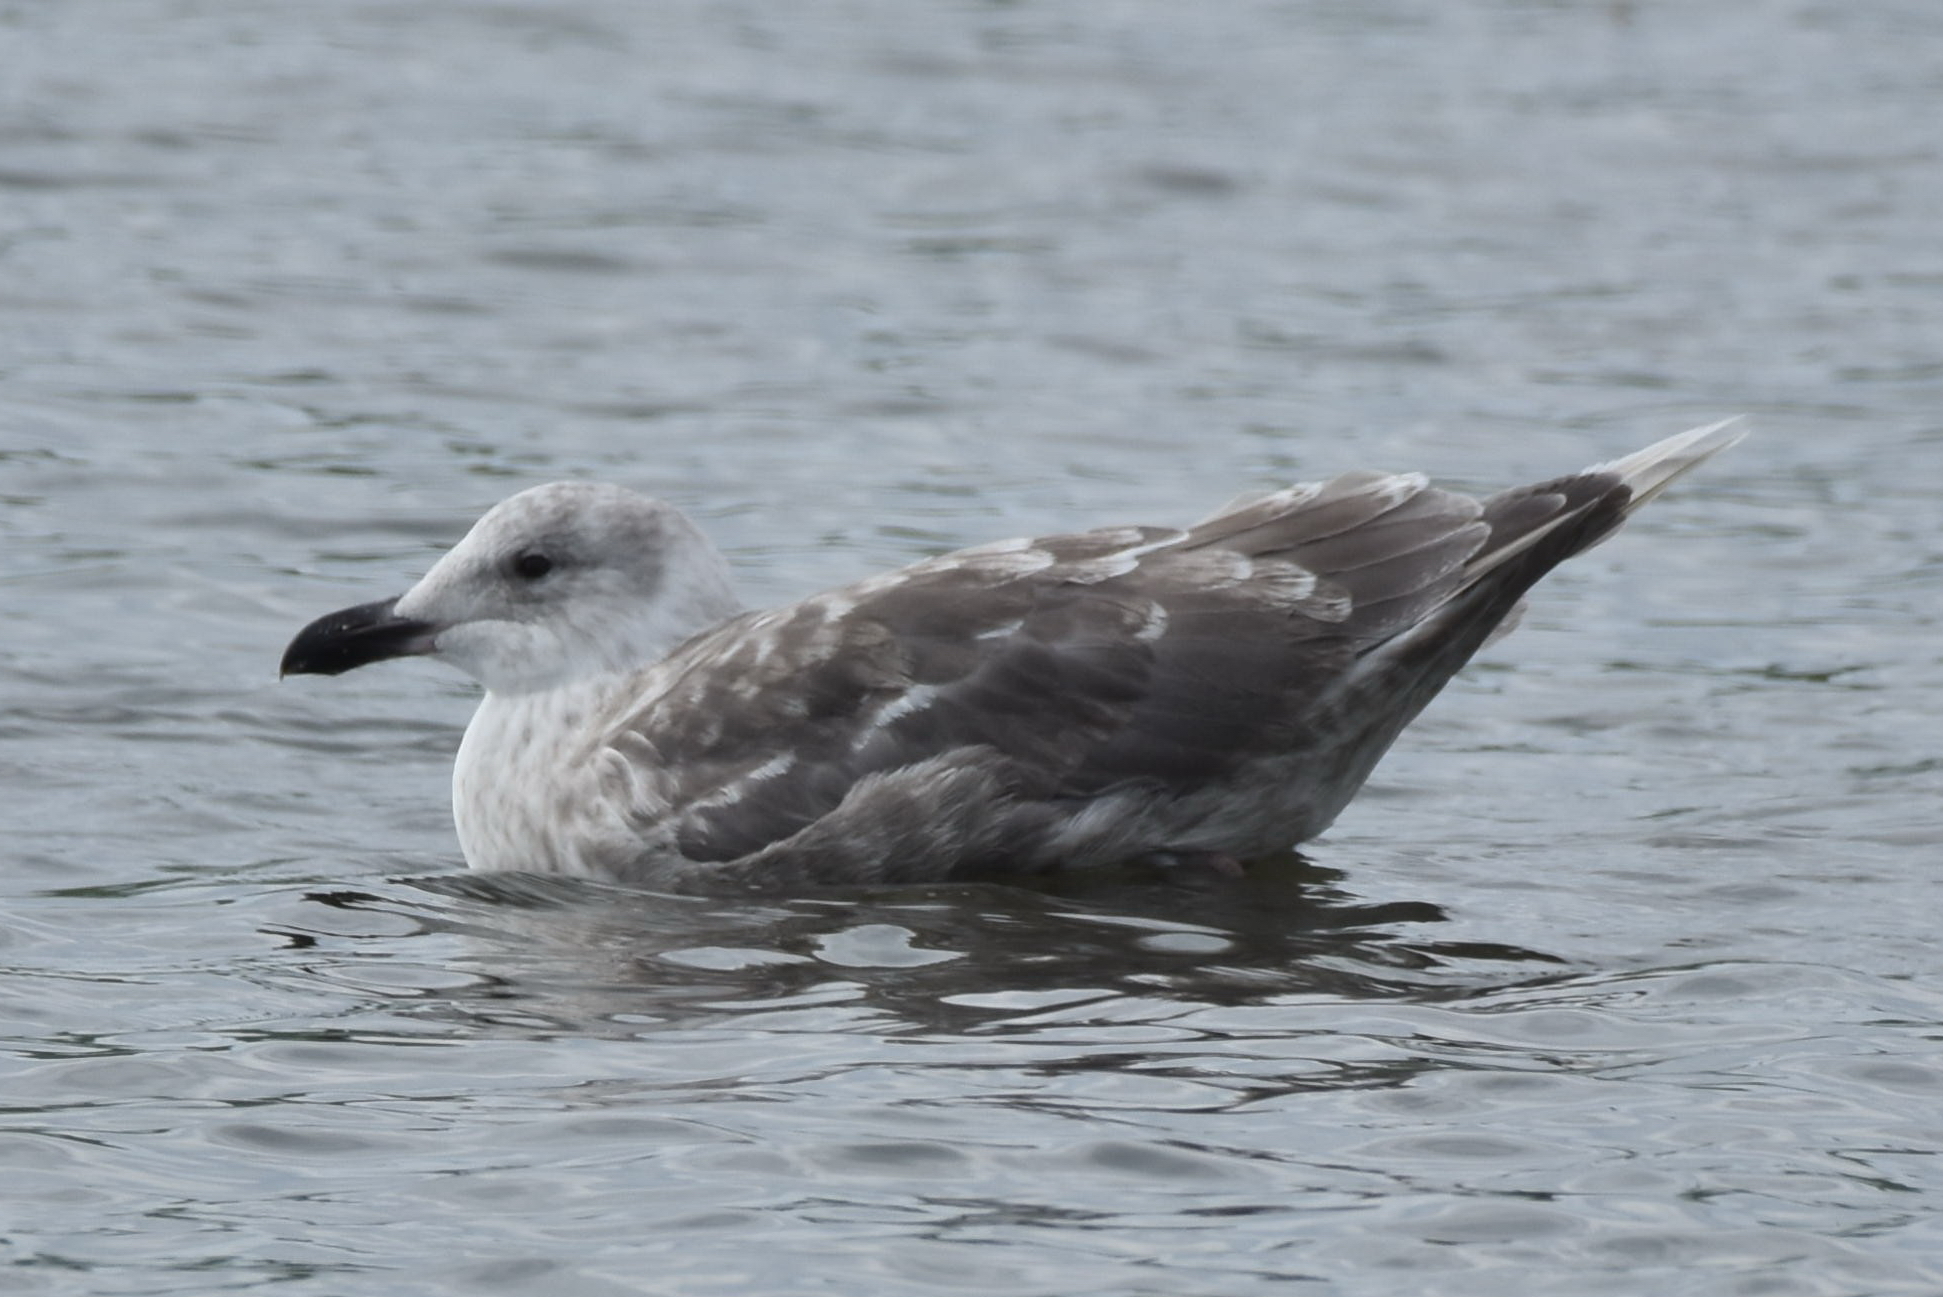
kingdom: Animalia
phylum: Chordata
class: Aves
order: Charadriiformes
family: Laridae
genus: Larus
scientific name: Larus glaucescens
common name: Glaucous-winged gull
